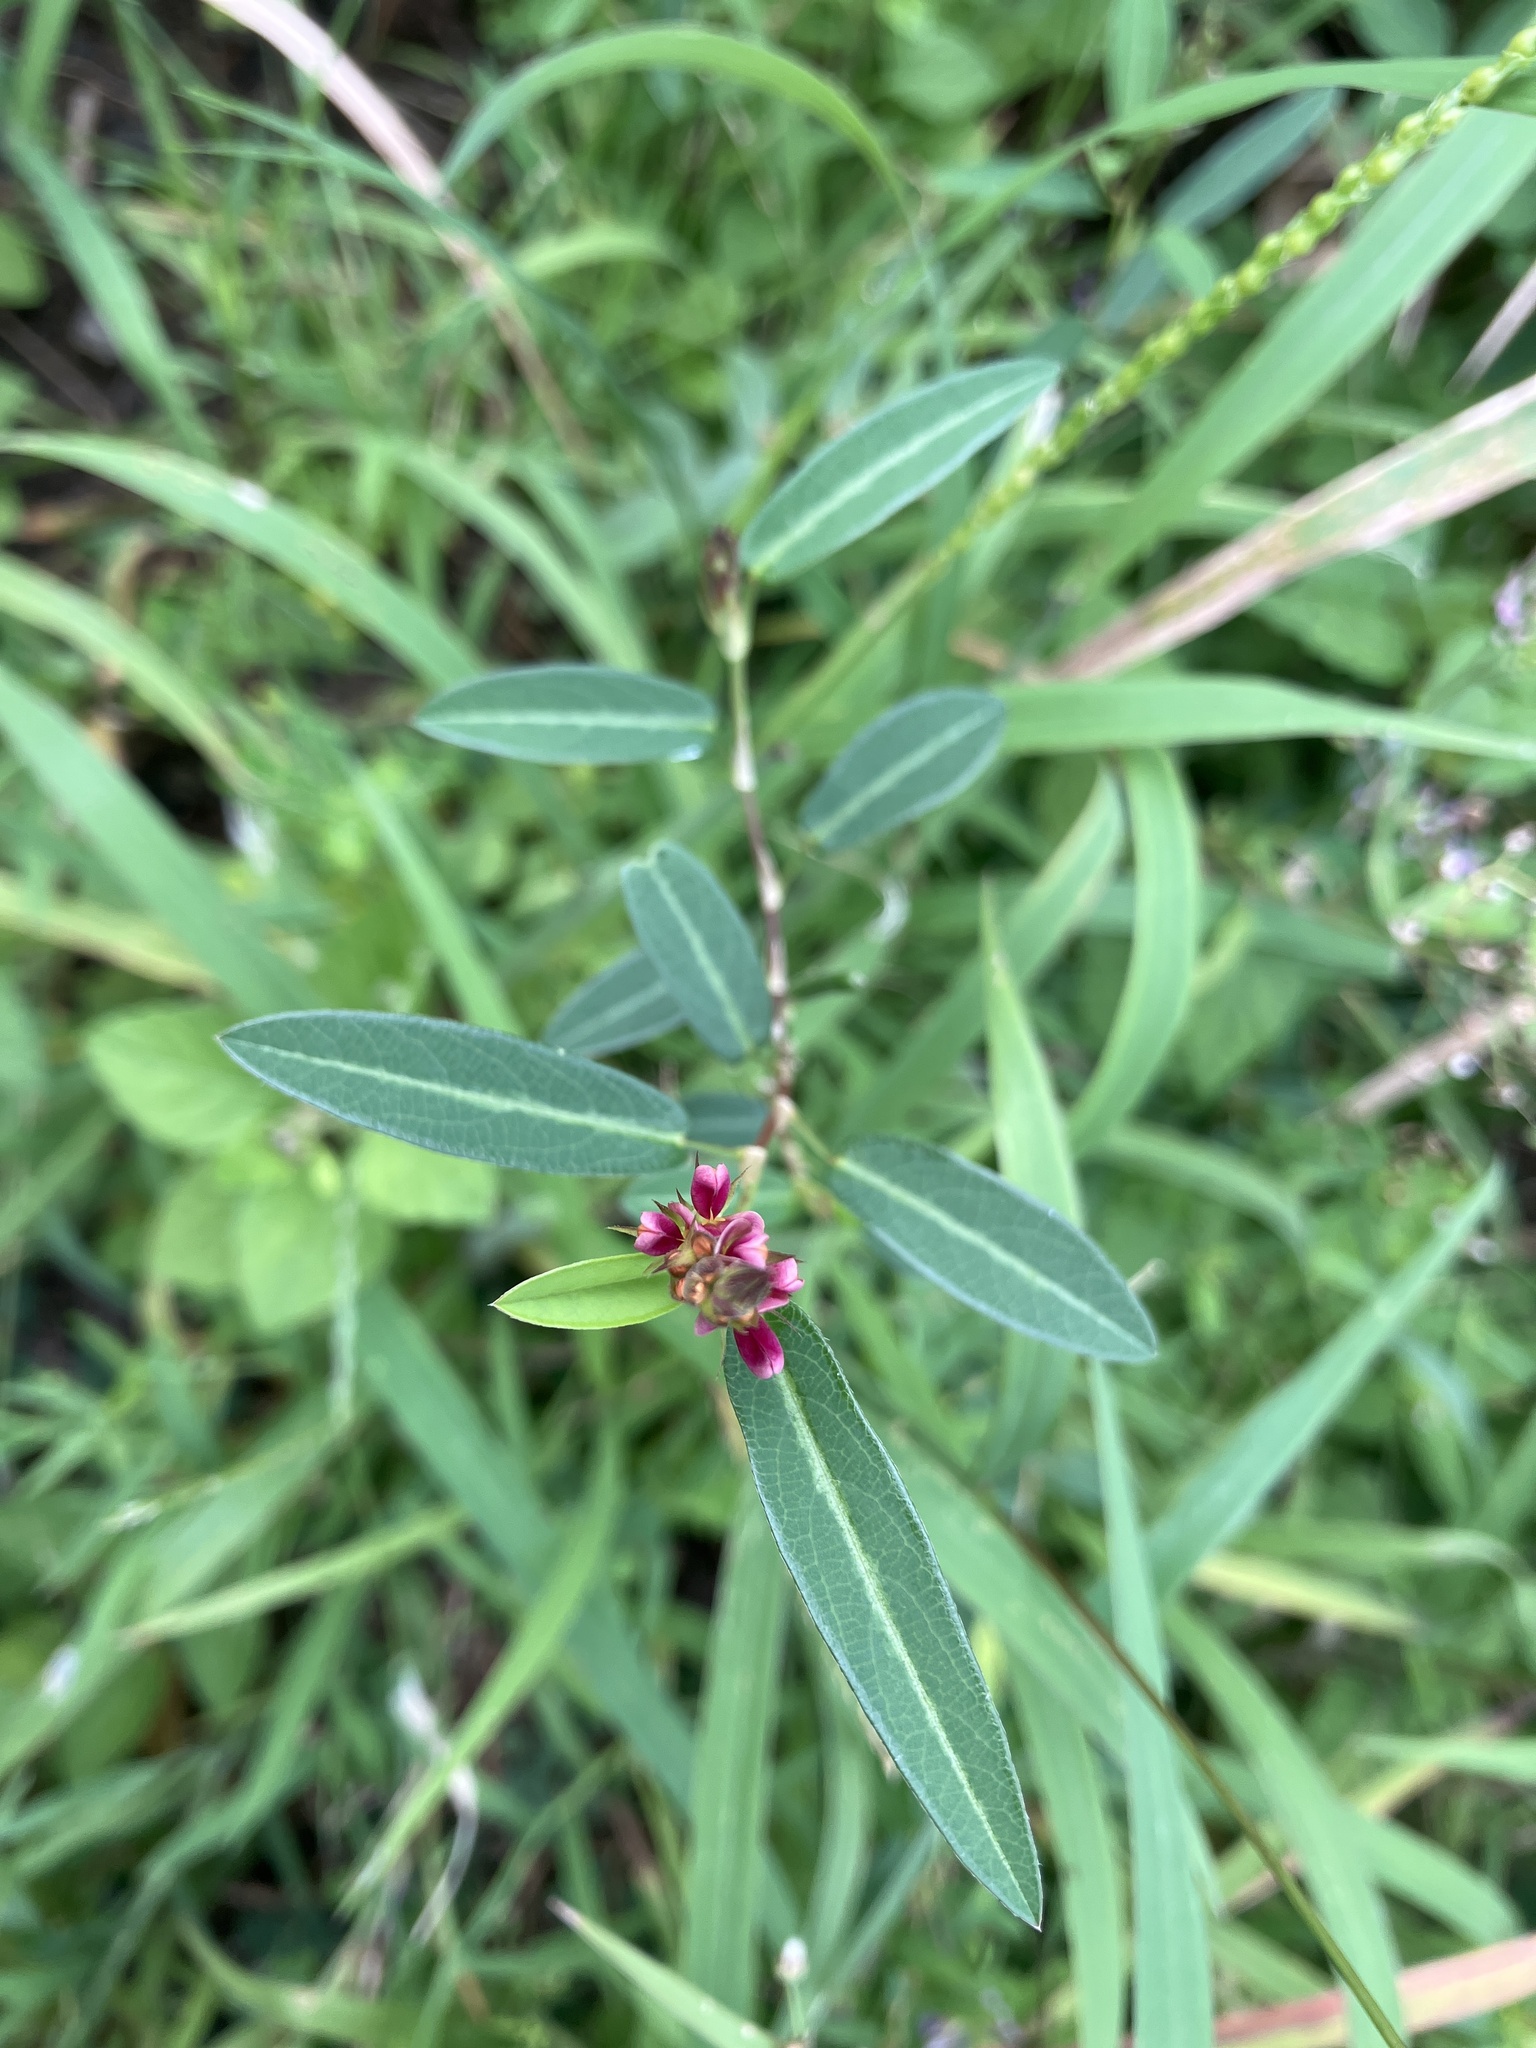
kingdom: Plantae
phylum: Tracheophyta
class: Magnoliopsida
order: Fabales
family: Fabaceae
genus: Alysicarpus
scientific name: Alysicarpus vaginalis
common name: White moneywort
